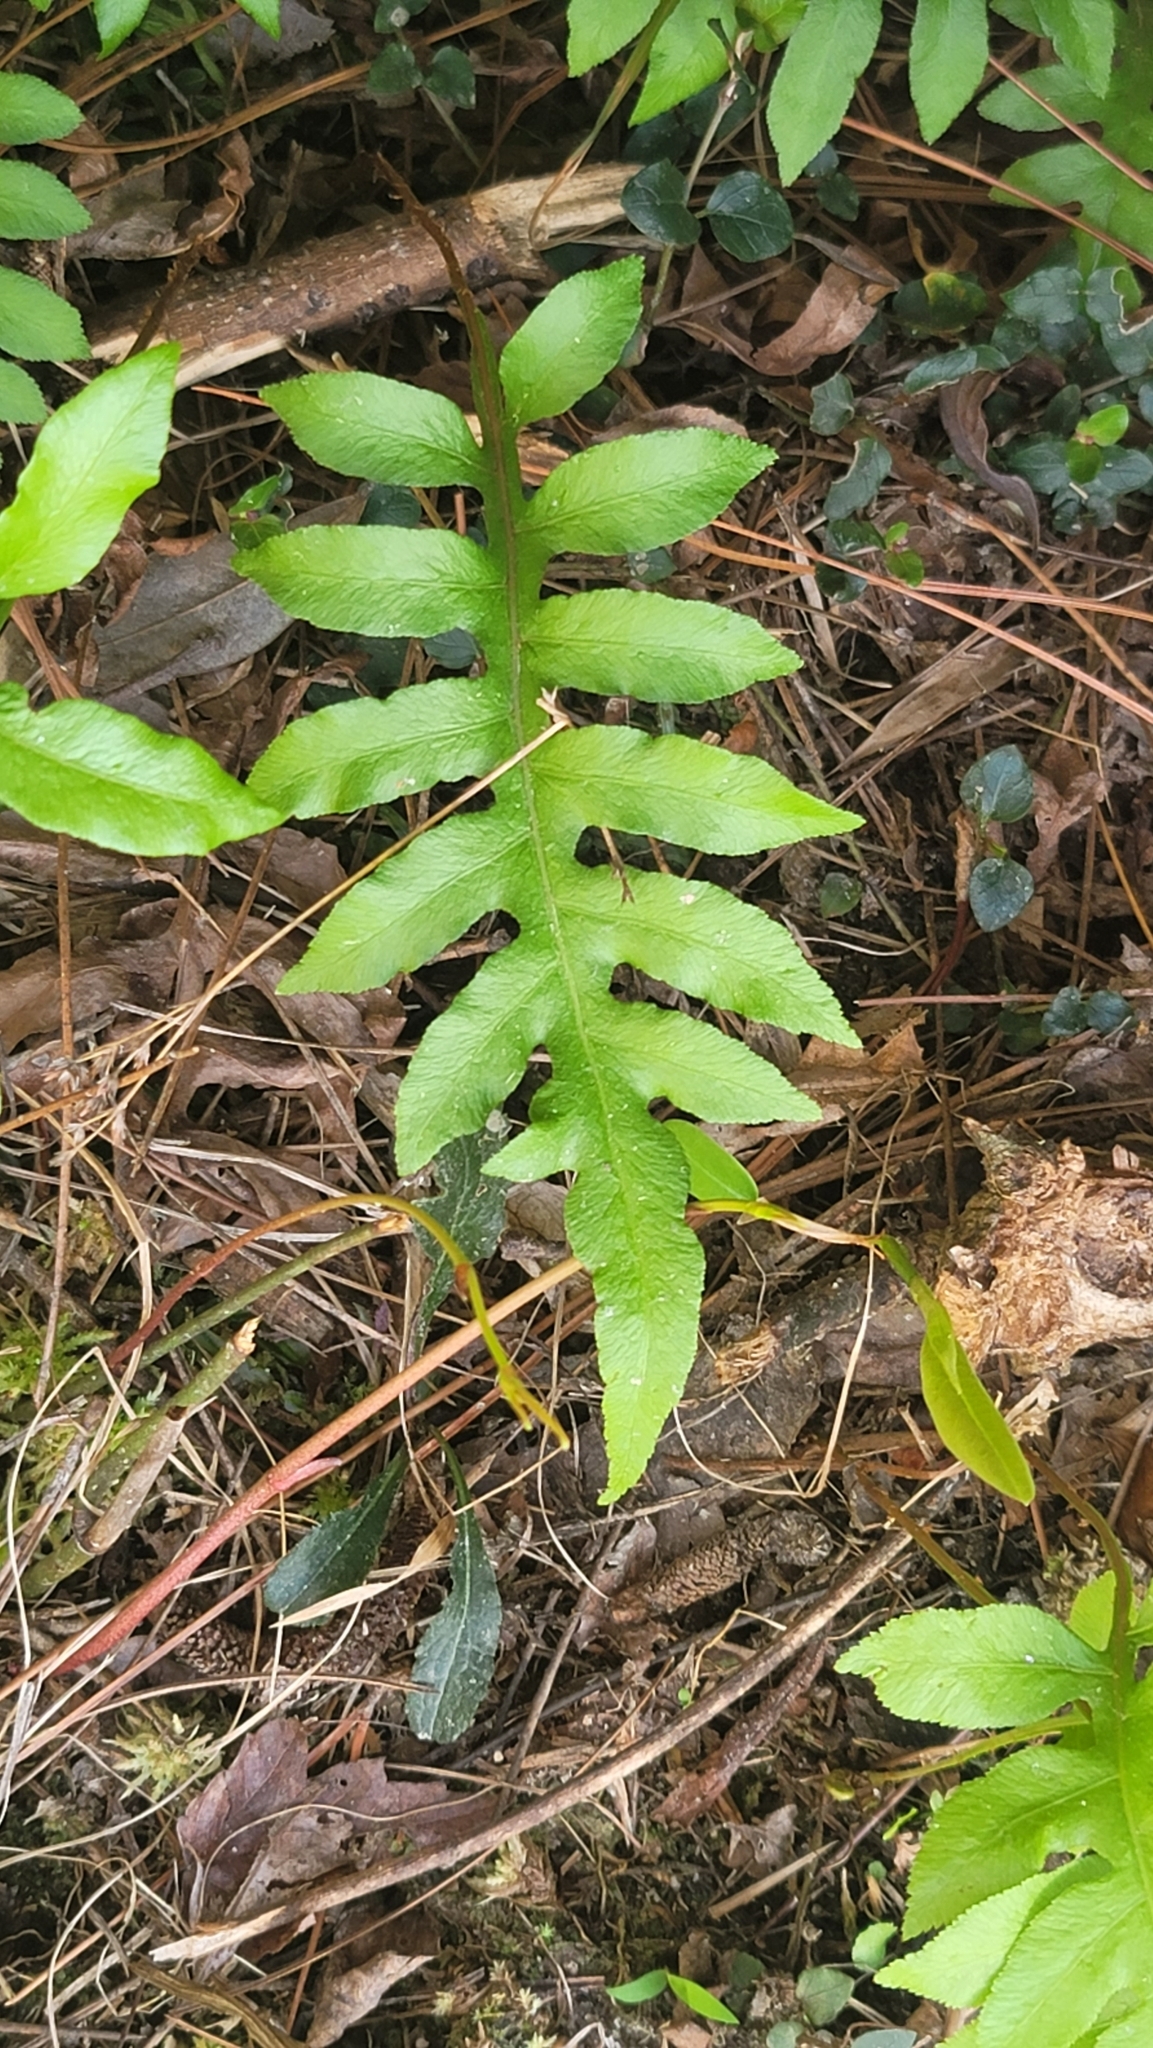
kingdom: Plantae
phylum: Tracheophyta
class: Polypodiopsida
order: Polypodiales
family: Blechnaceae
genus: Lorinseria
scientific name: Lorinseria areolata
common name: Dwarf chain fern
